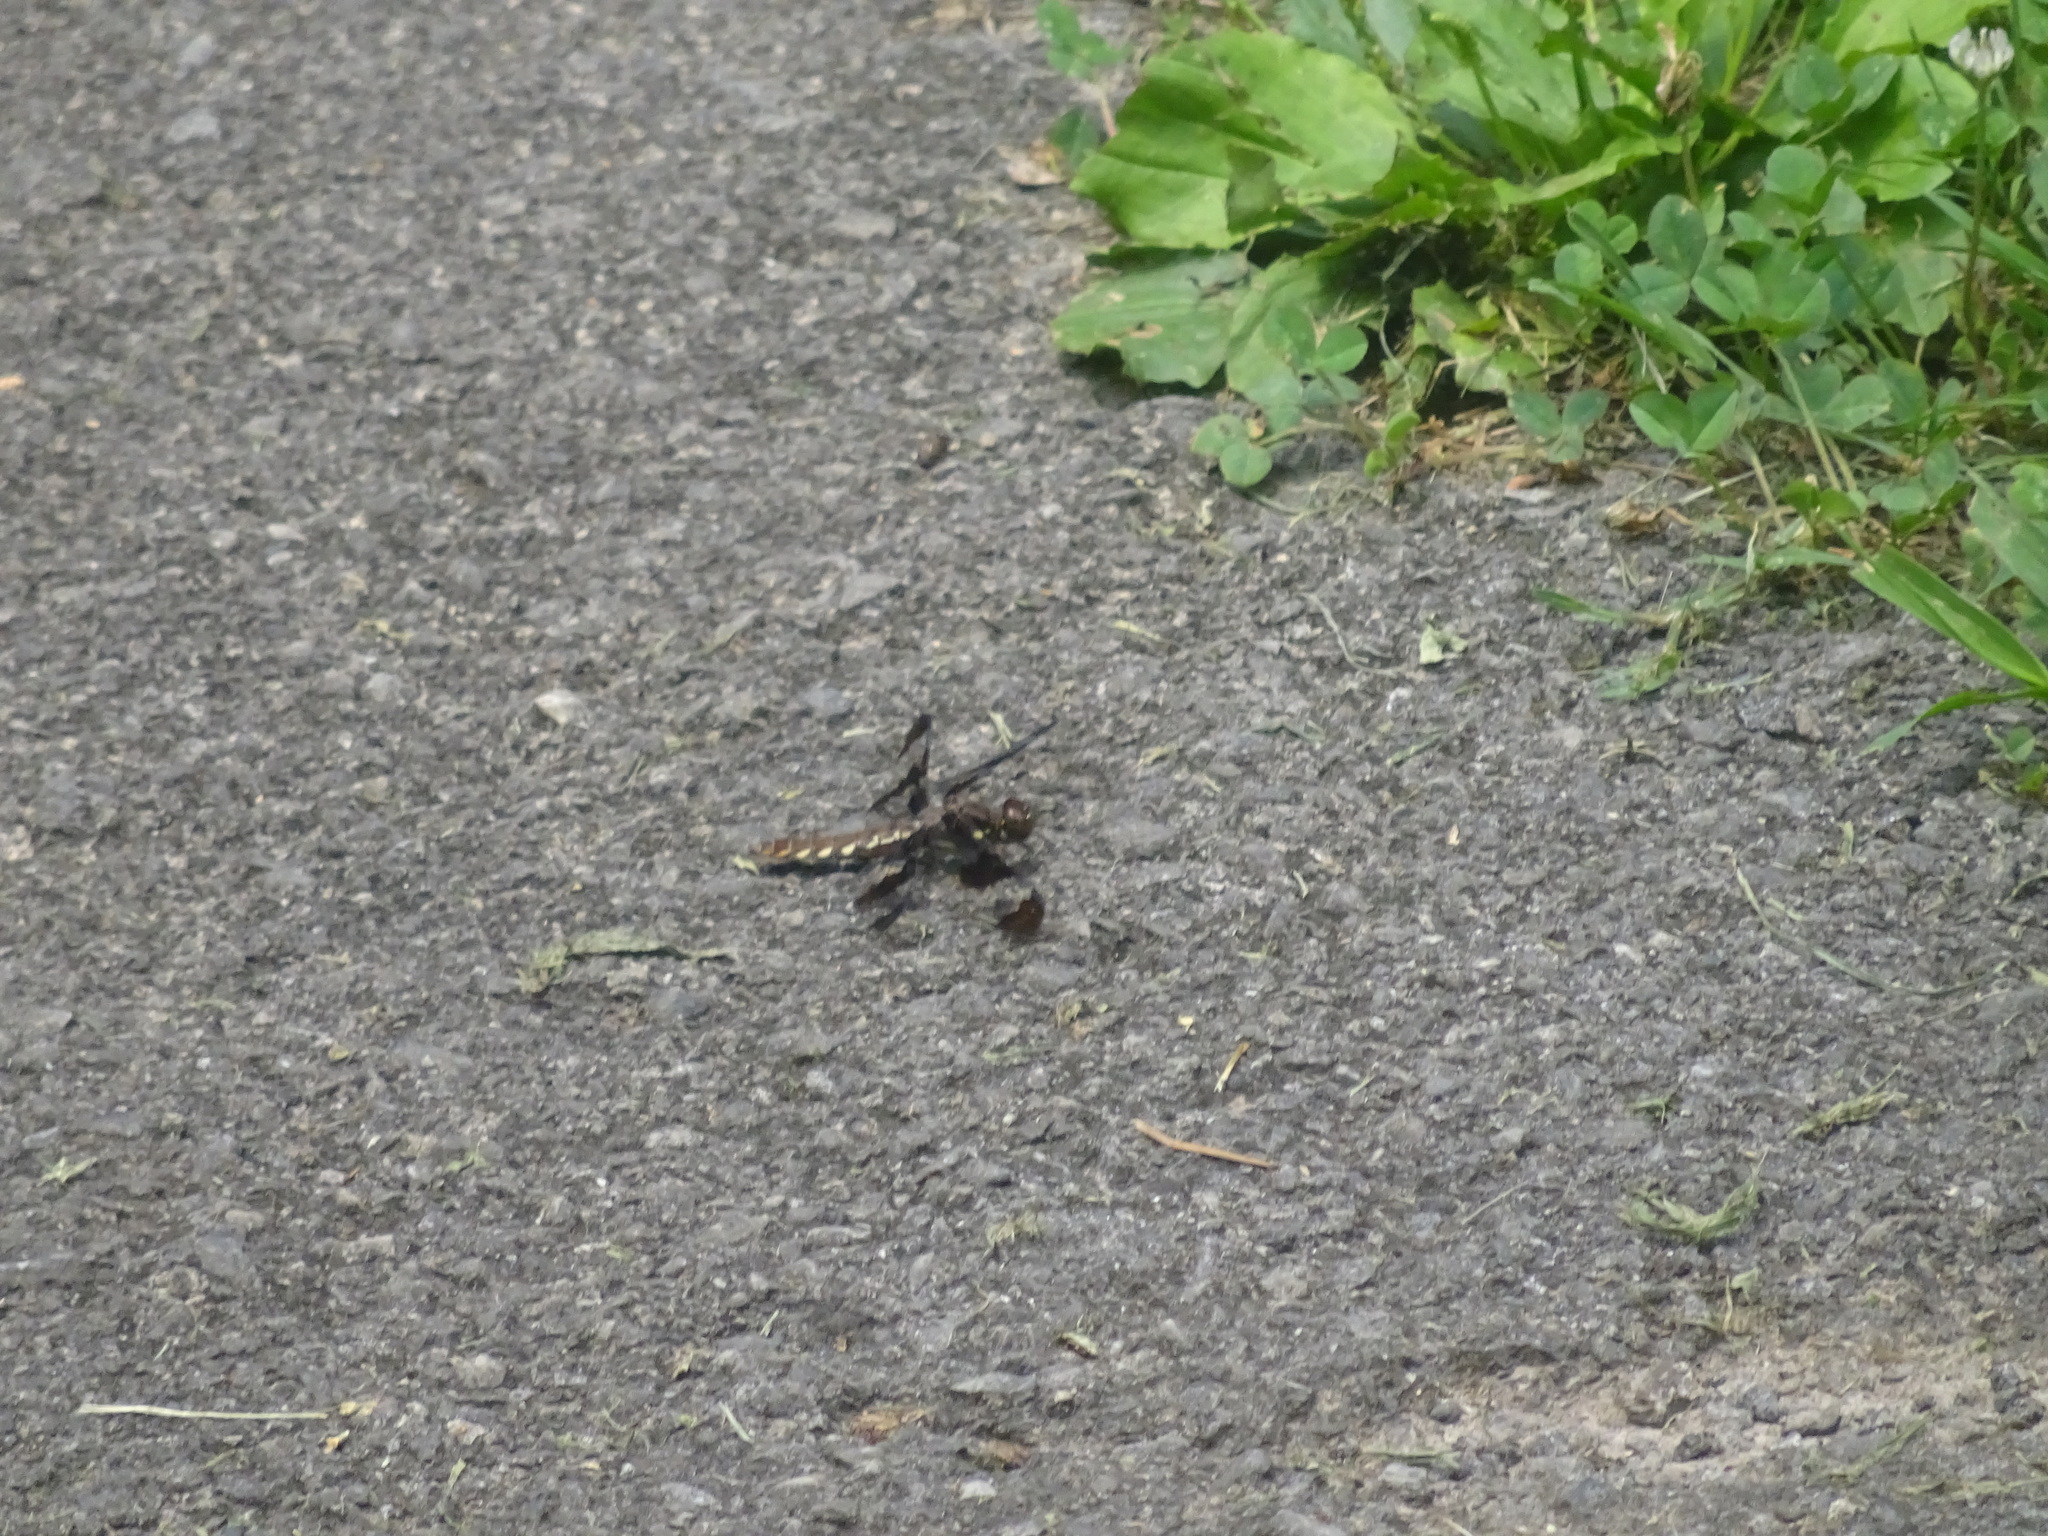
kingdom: Animalia
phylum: Arthropoda
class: Insecta
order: Odonata
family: Libellulidae
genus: Plathemis
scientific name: Plathemis lydia
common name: Common whitetail
